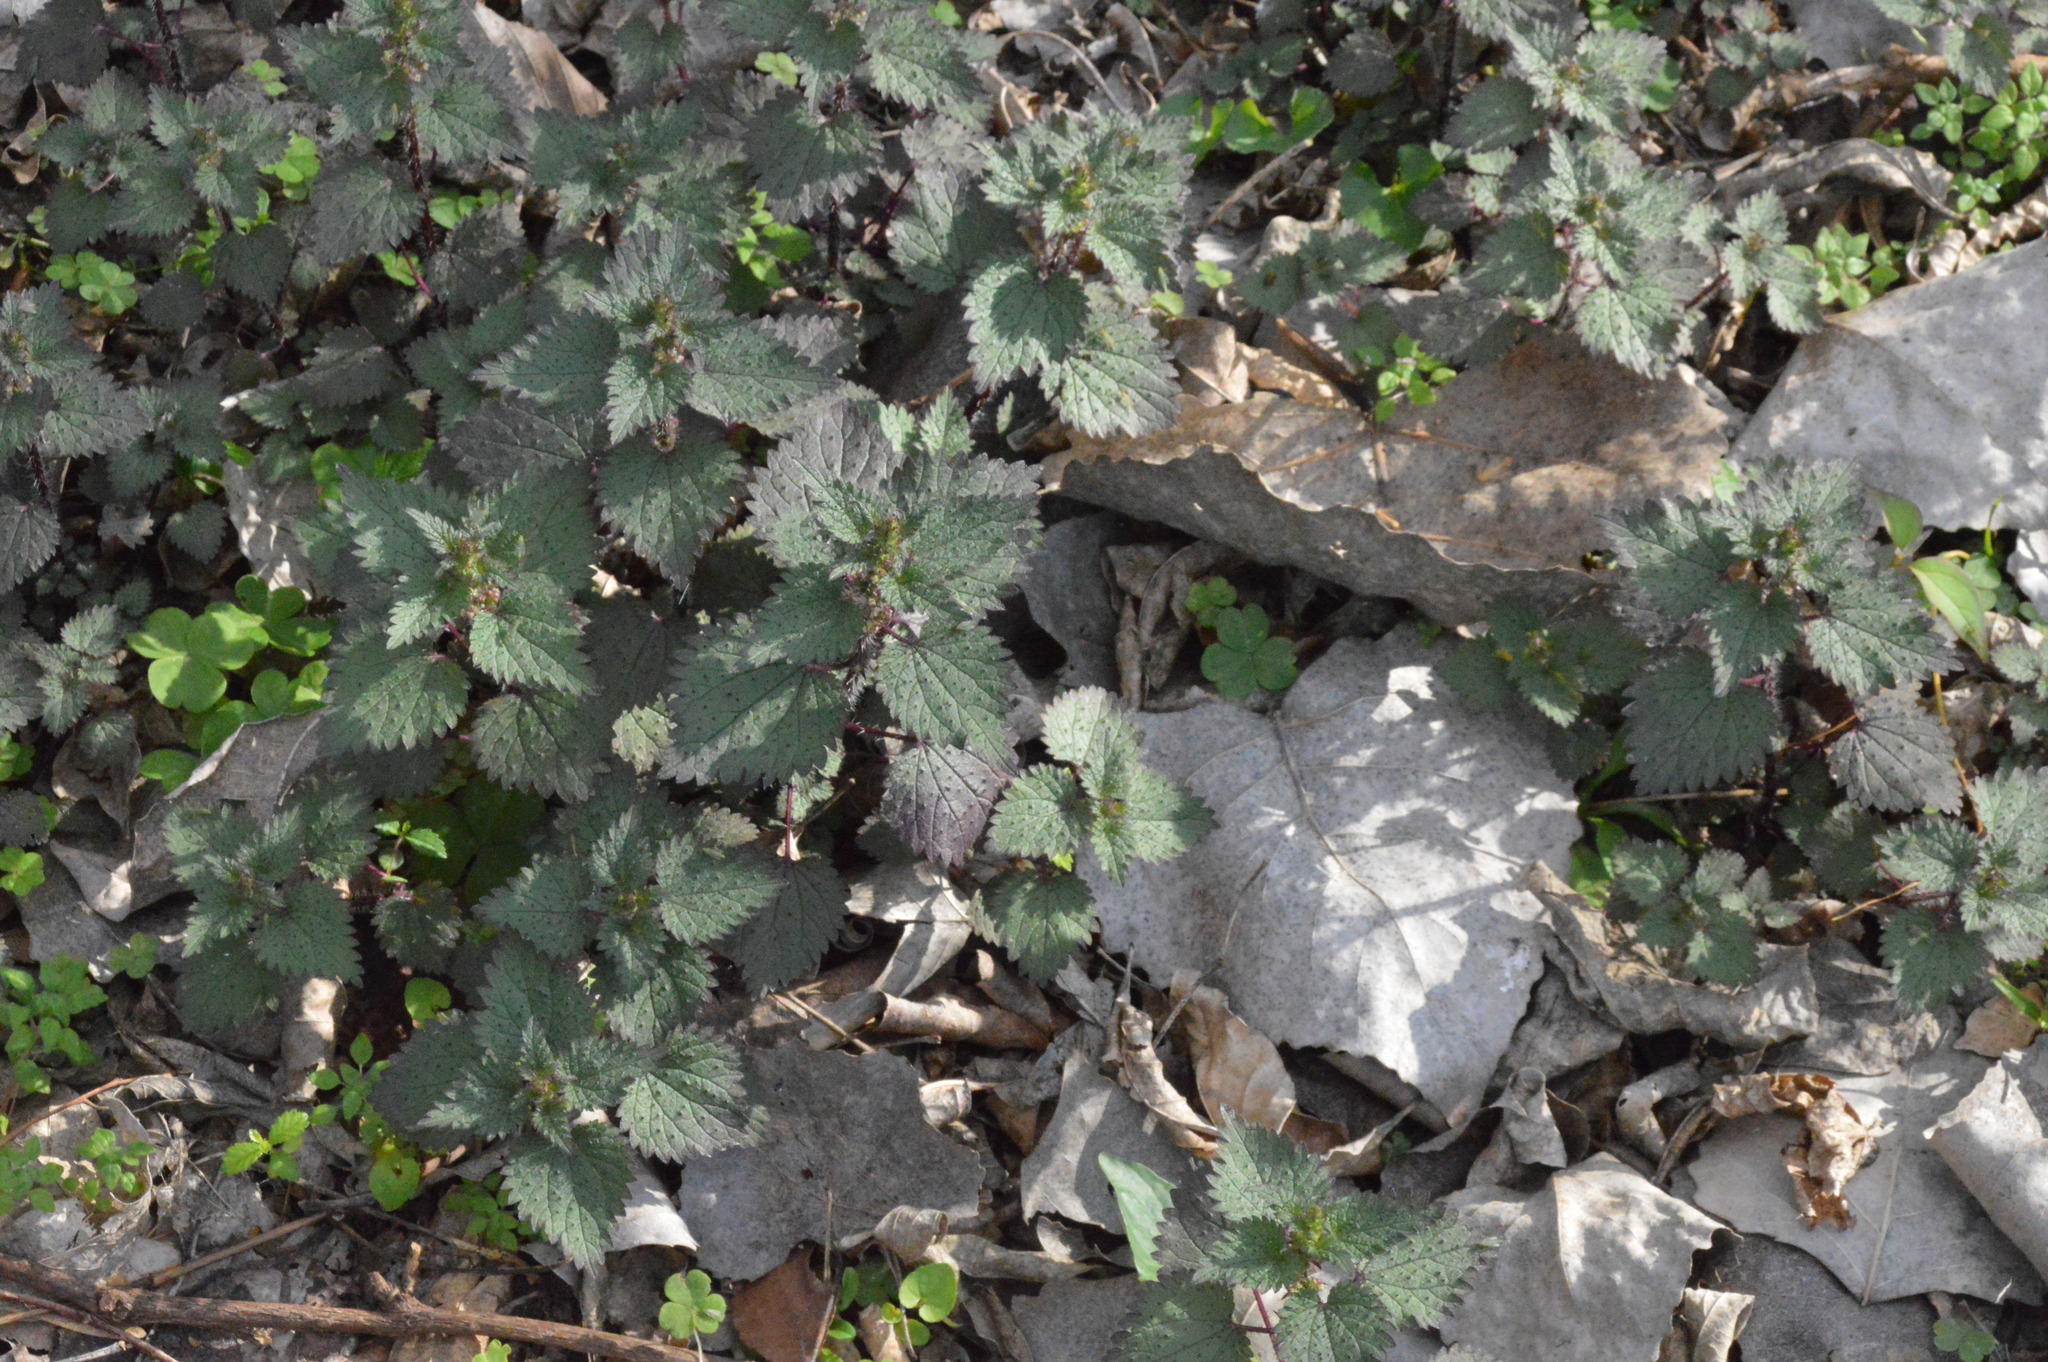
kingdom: Plantae
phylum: Tracheophyta
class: Magnoliopsida
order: Rosales
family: Urticaceae
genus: Urtica
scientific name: Urtica chamaedryoides
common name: Heart-leaf nettle
